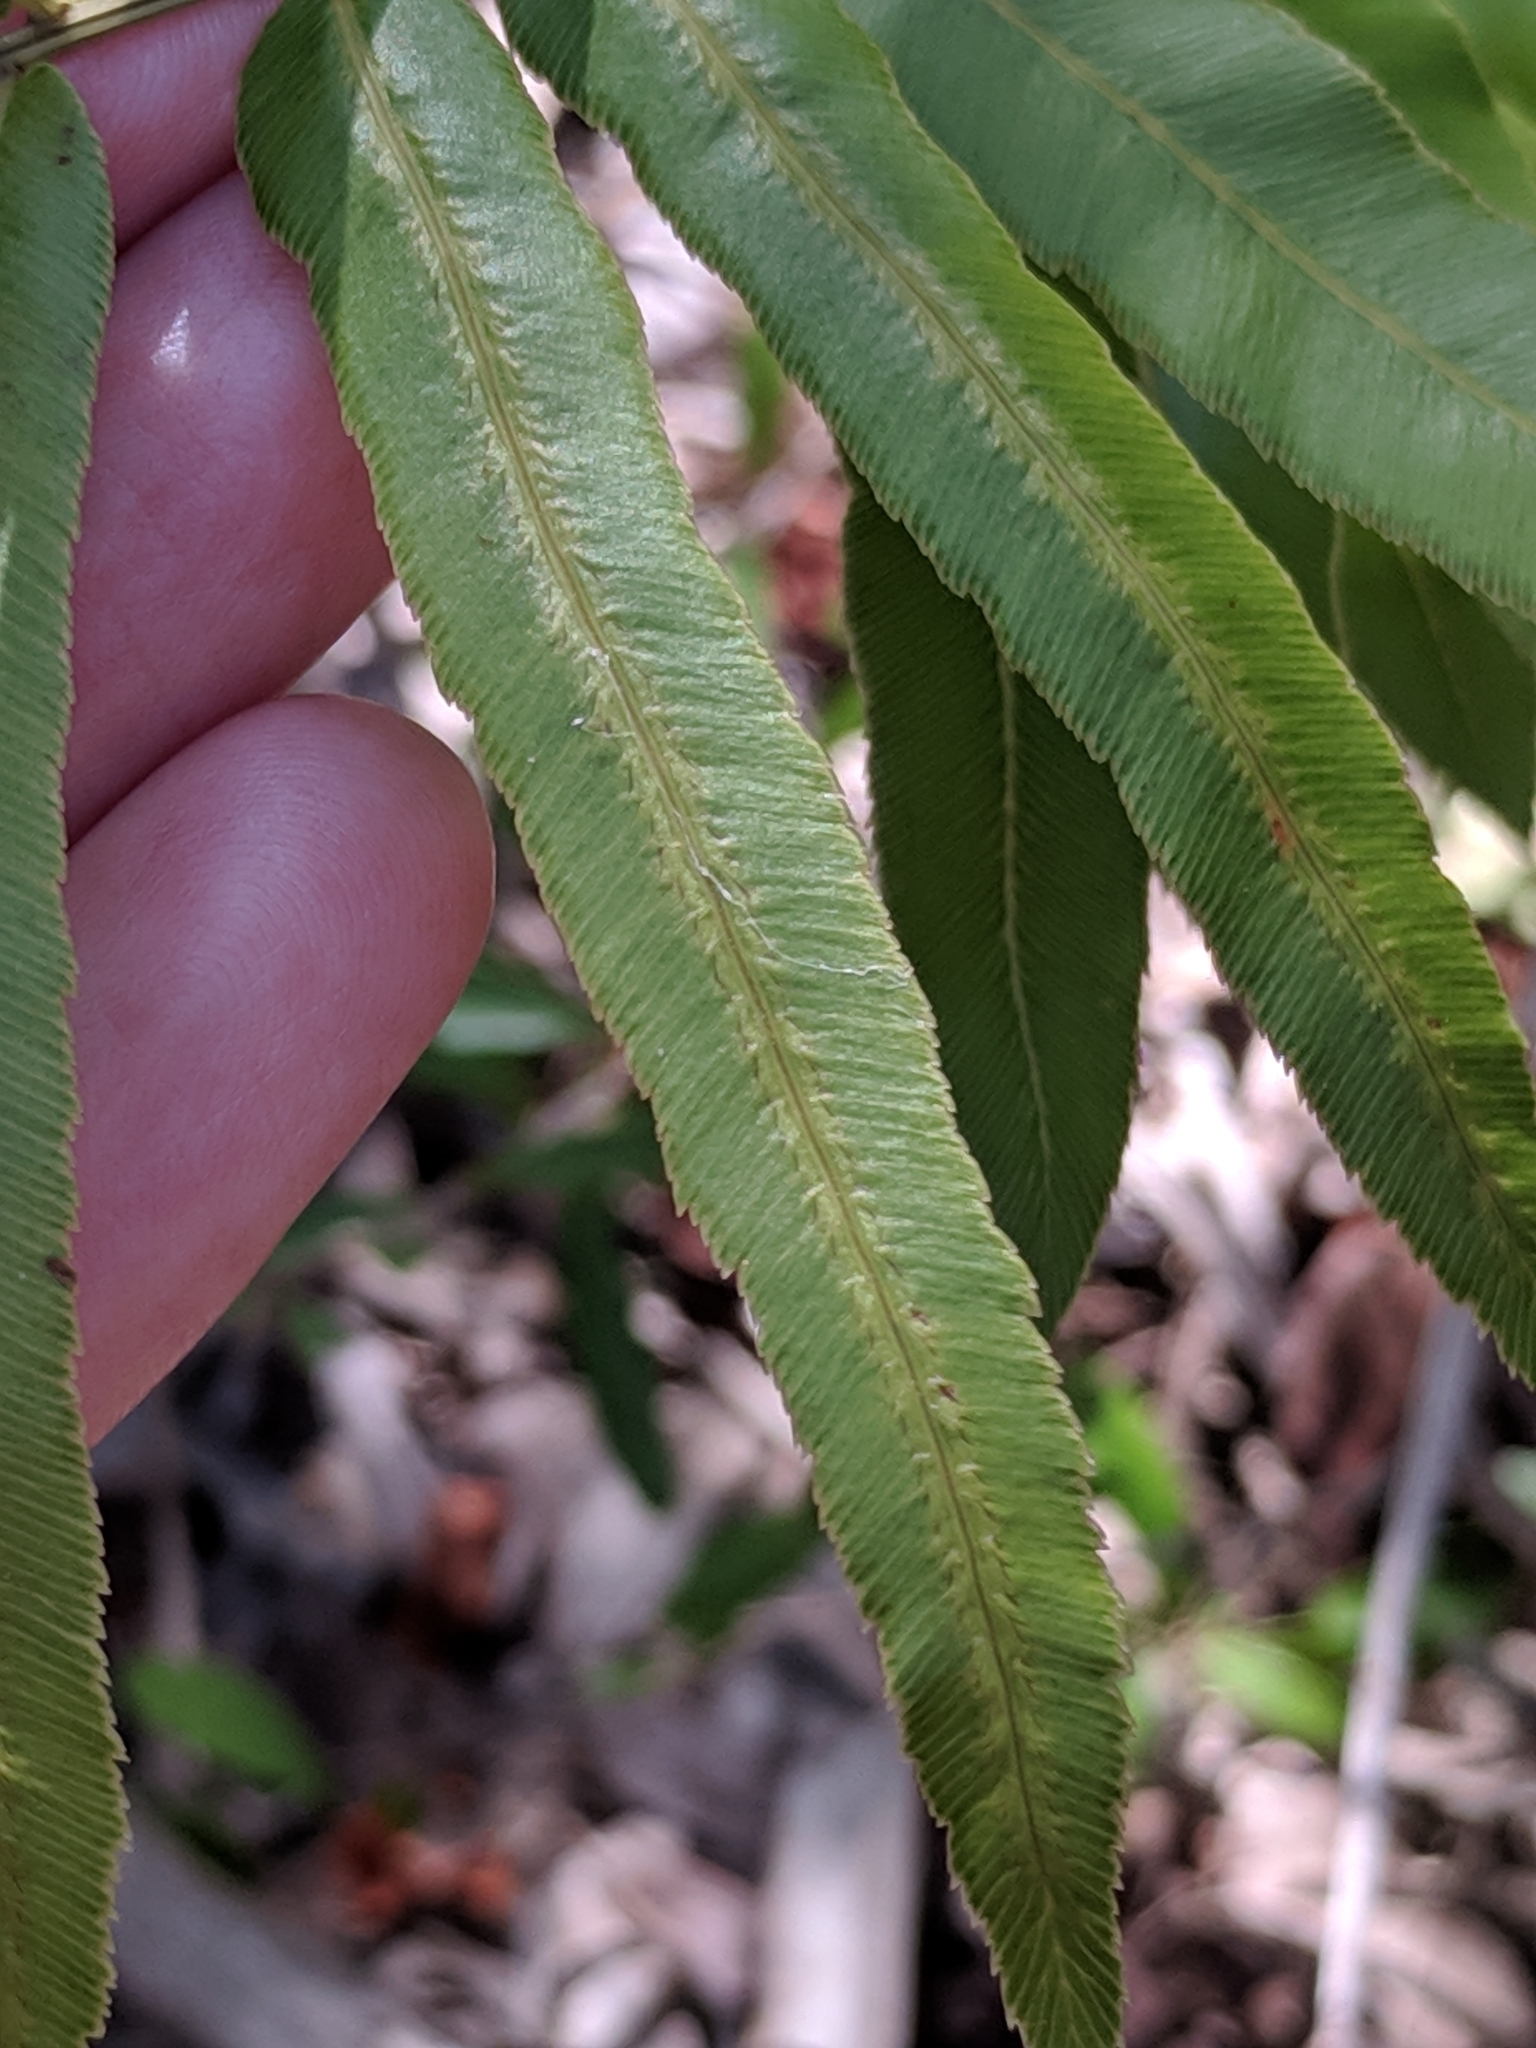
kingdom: Plantae
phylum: Tracheophyta
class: Polypodiopsida
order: Polypodiales
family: Blechnaceae
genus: Telmatoblechnum
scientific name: Telmatoblechnum serrulatum
